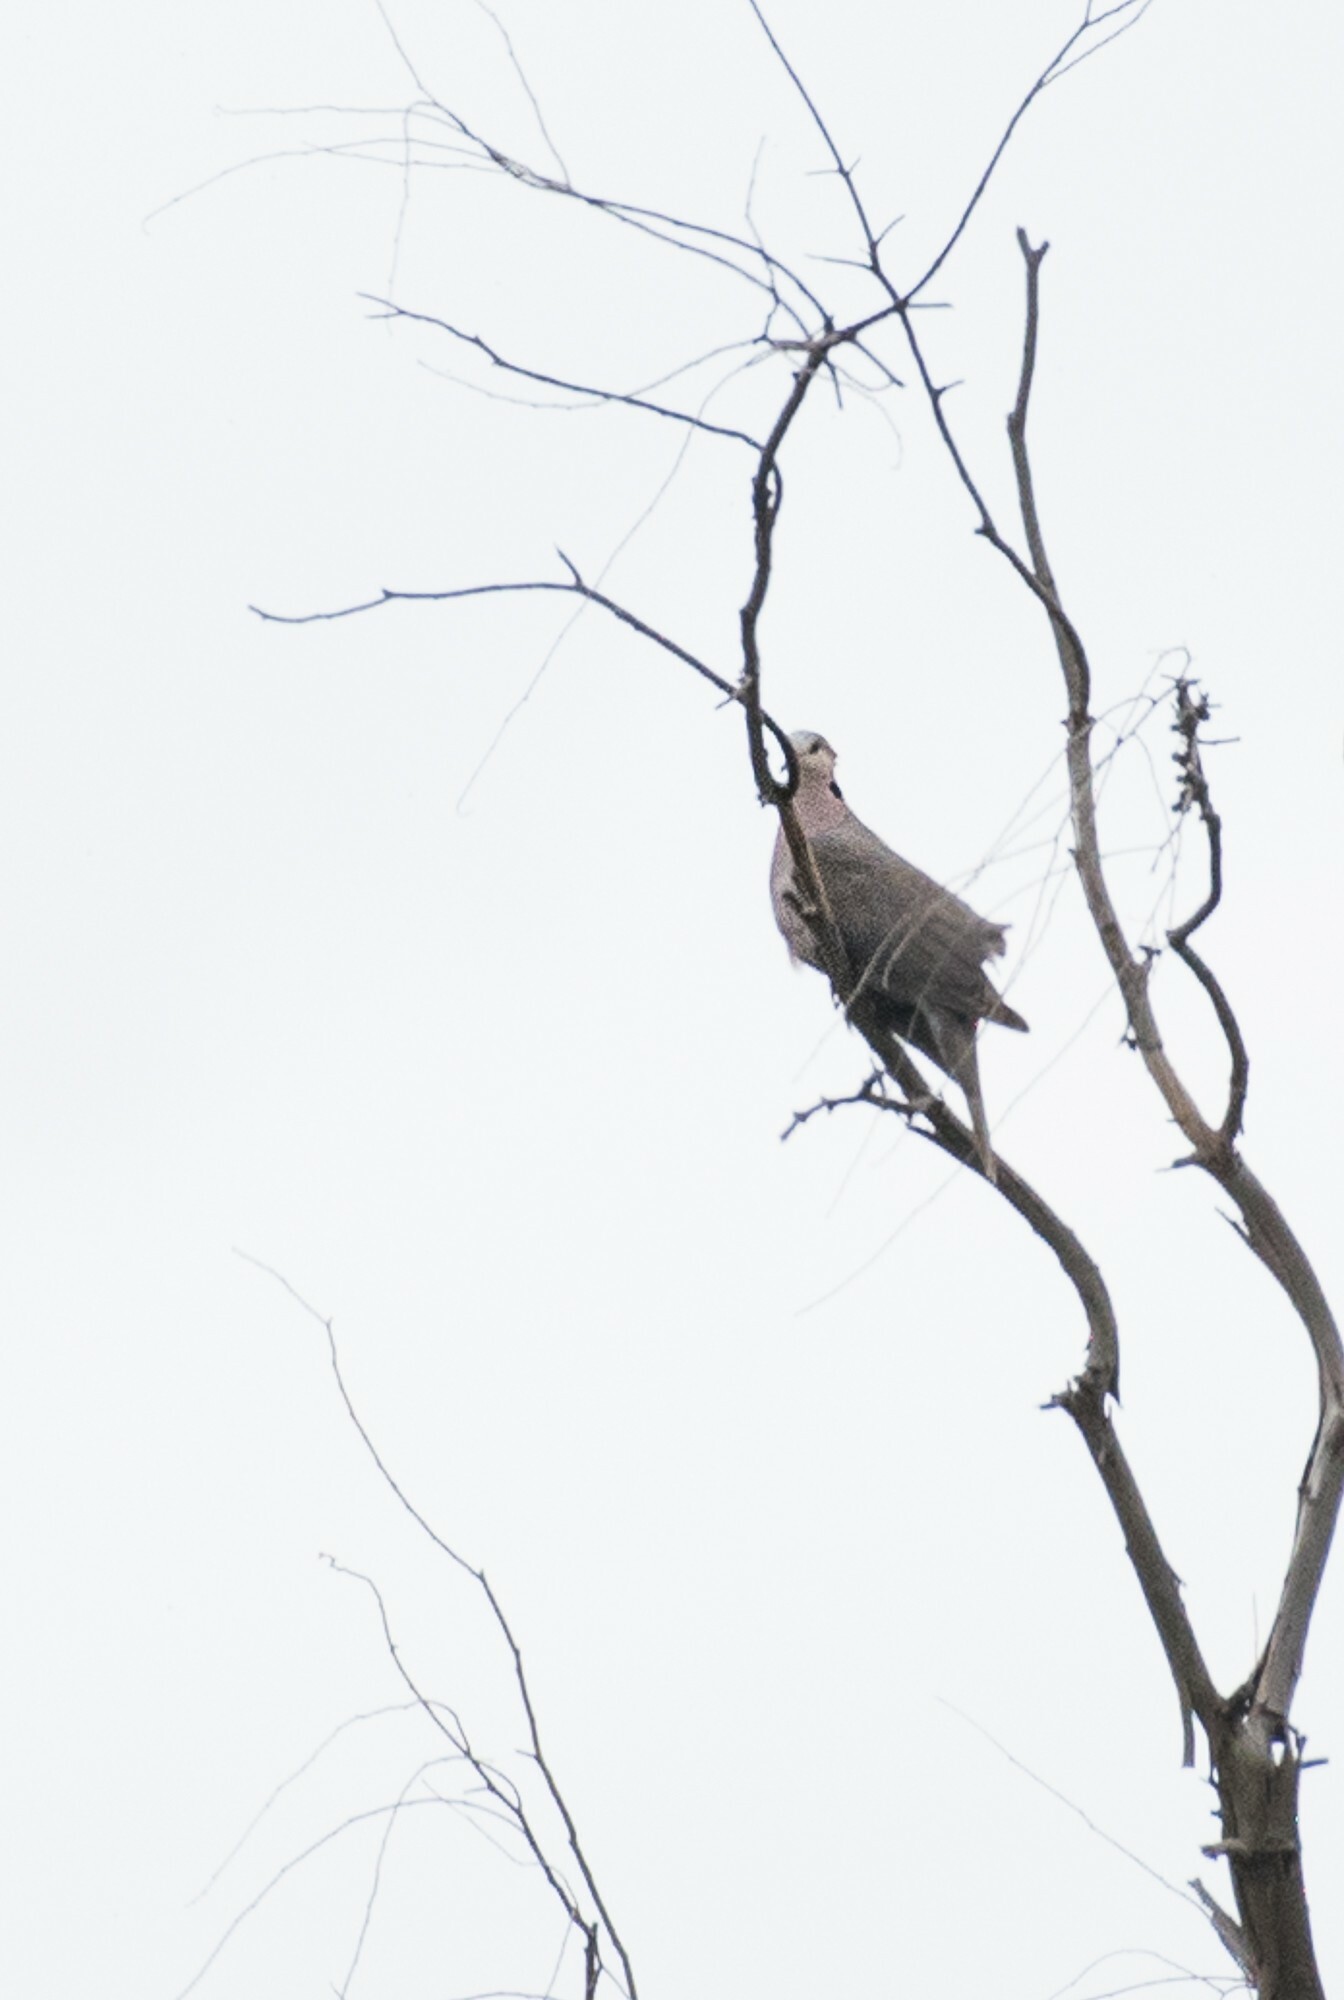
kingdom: Animalia
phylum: Chordata
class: Aves
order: Columbiformes
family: Columbidae
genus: Streptopelia
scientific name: Streptopelia semitorquata
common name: Red-eyed dove
